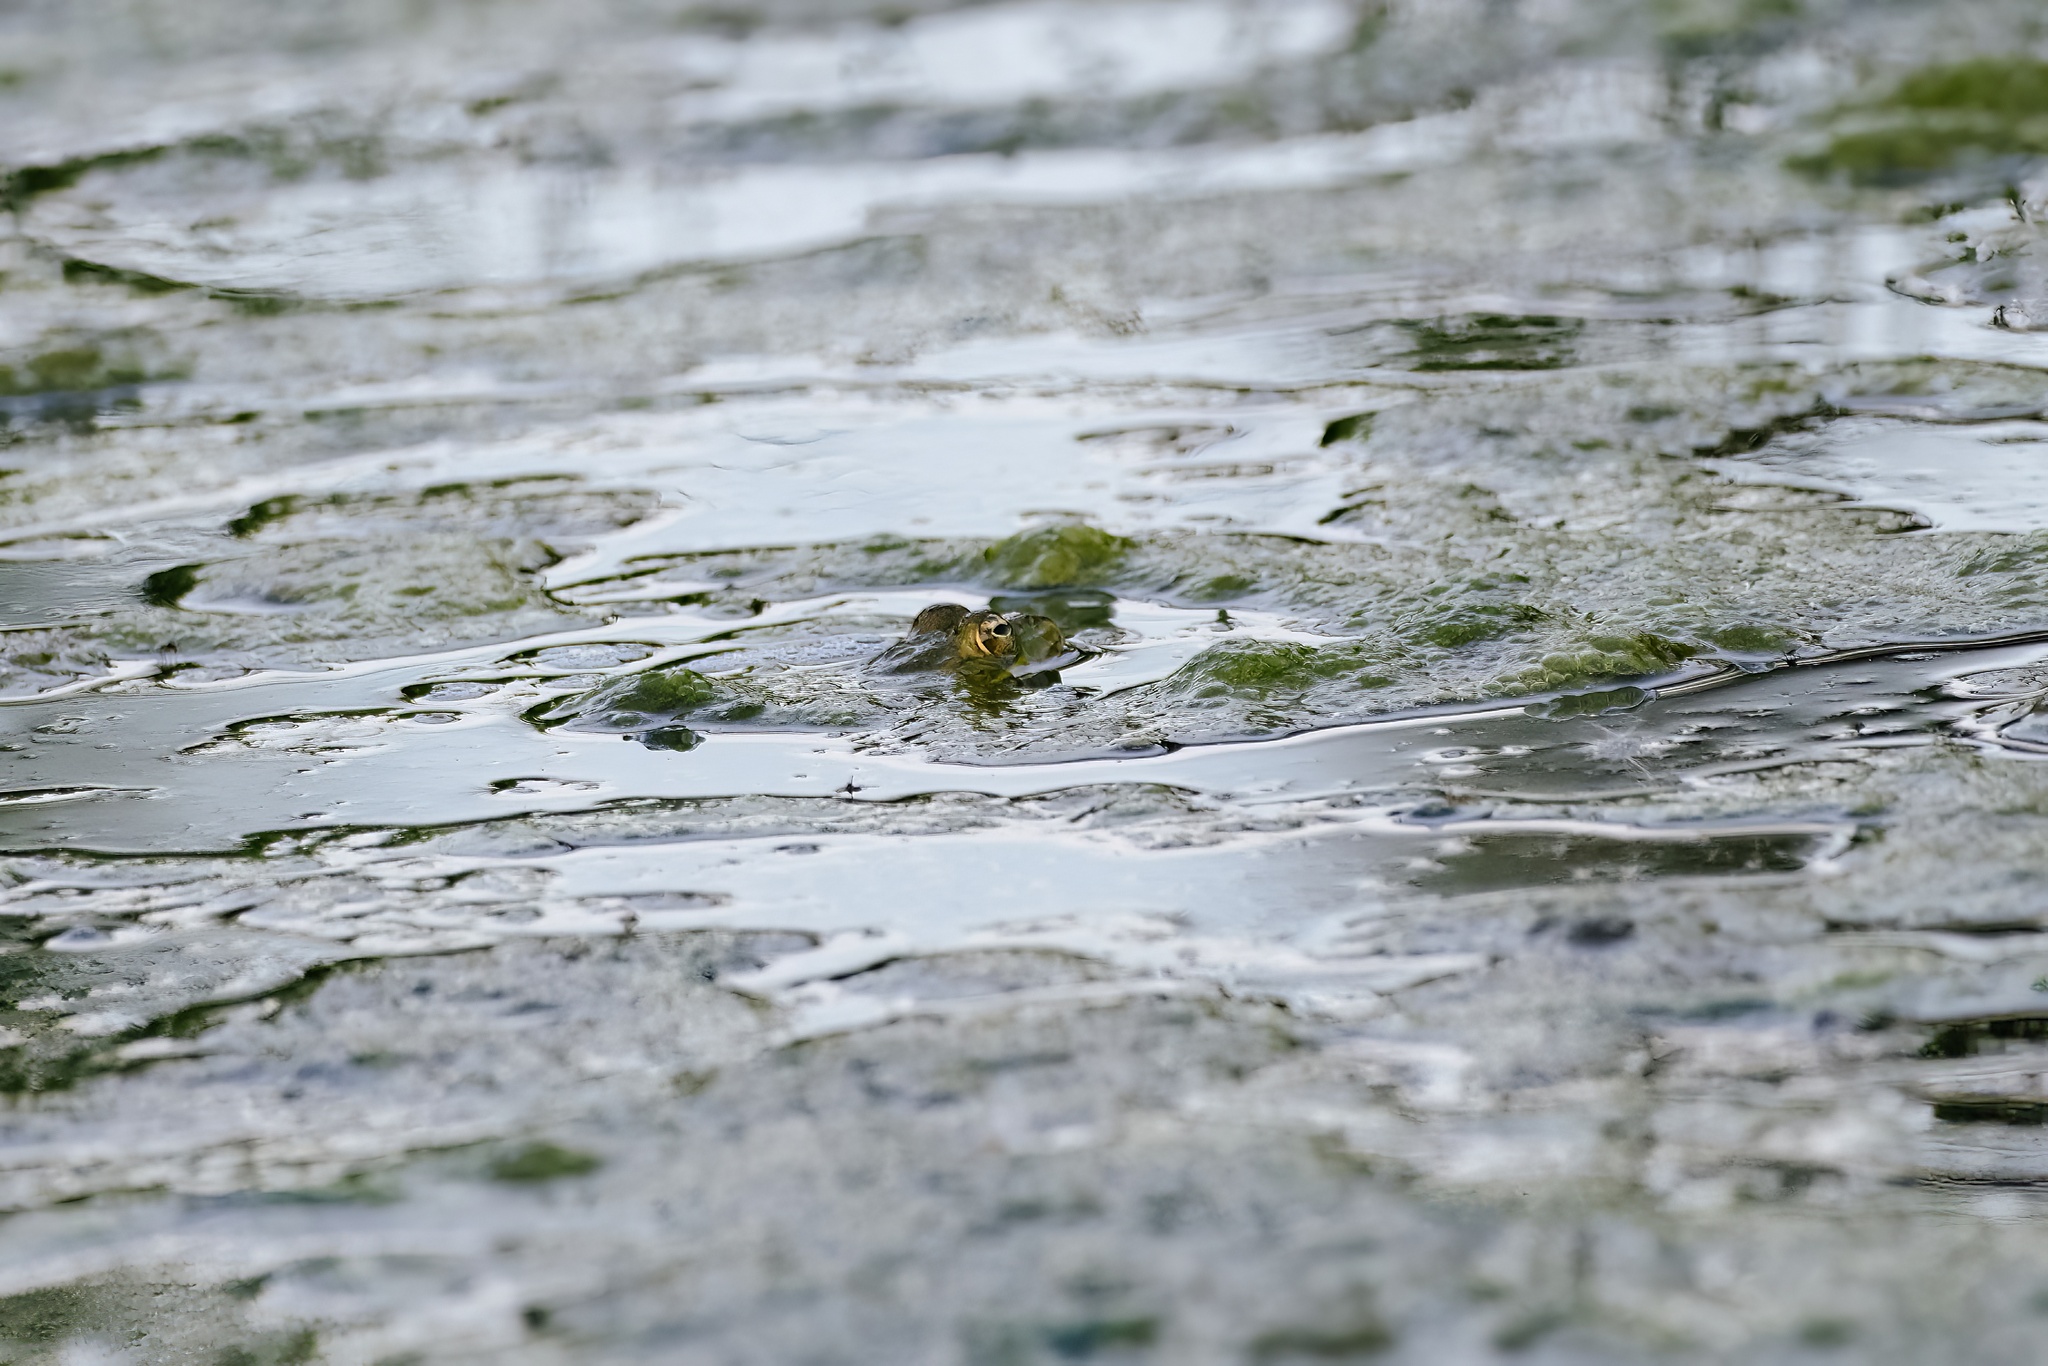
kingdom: Animalia
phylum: Chordata
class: Amphibia
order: Anura
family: Ranidae
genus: Pelophylax
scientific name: Pelophylax perezi
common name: Perez's frog
